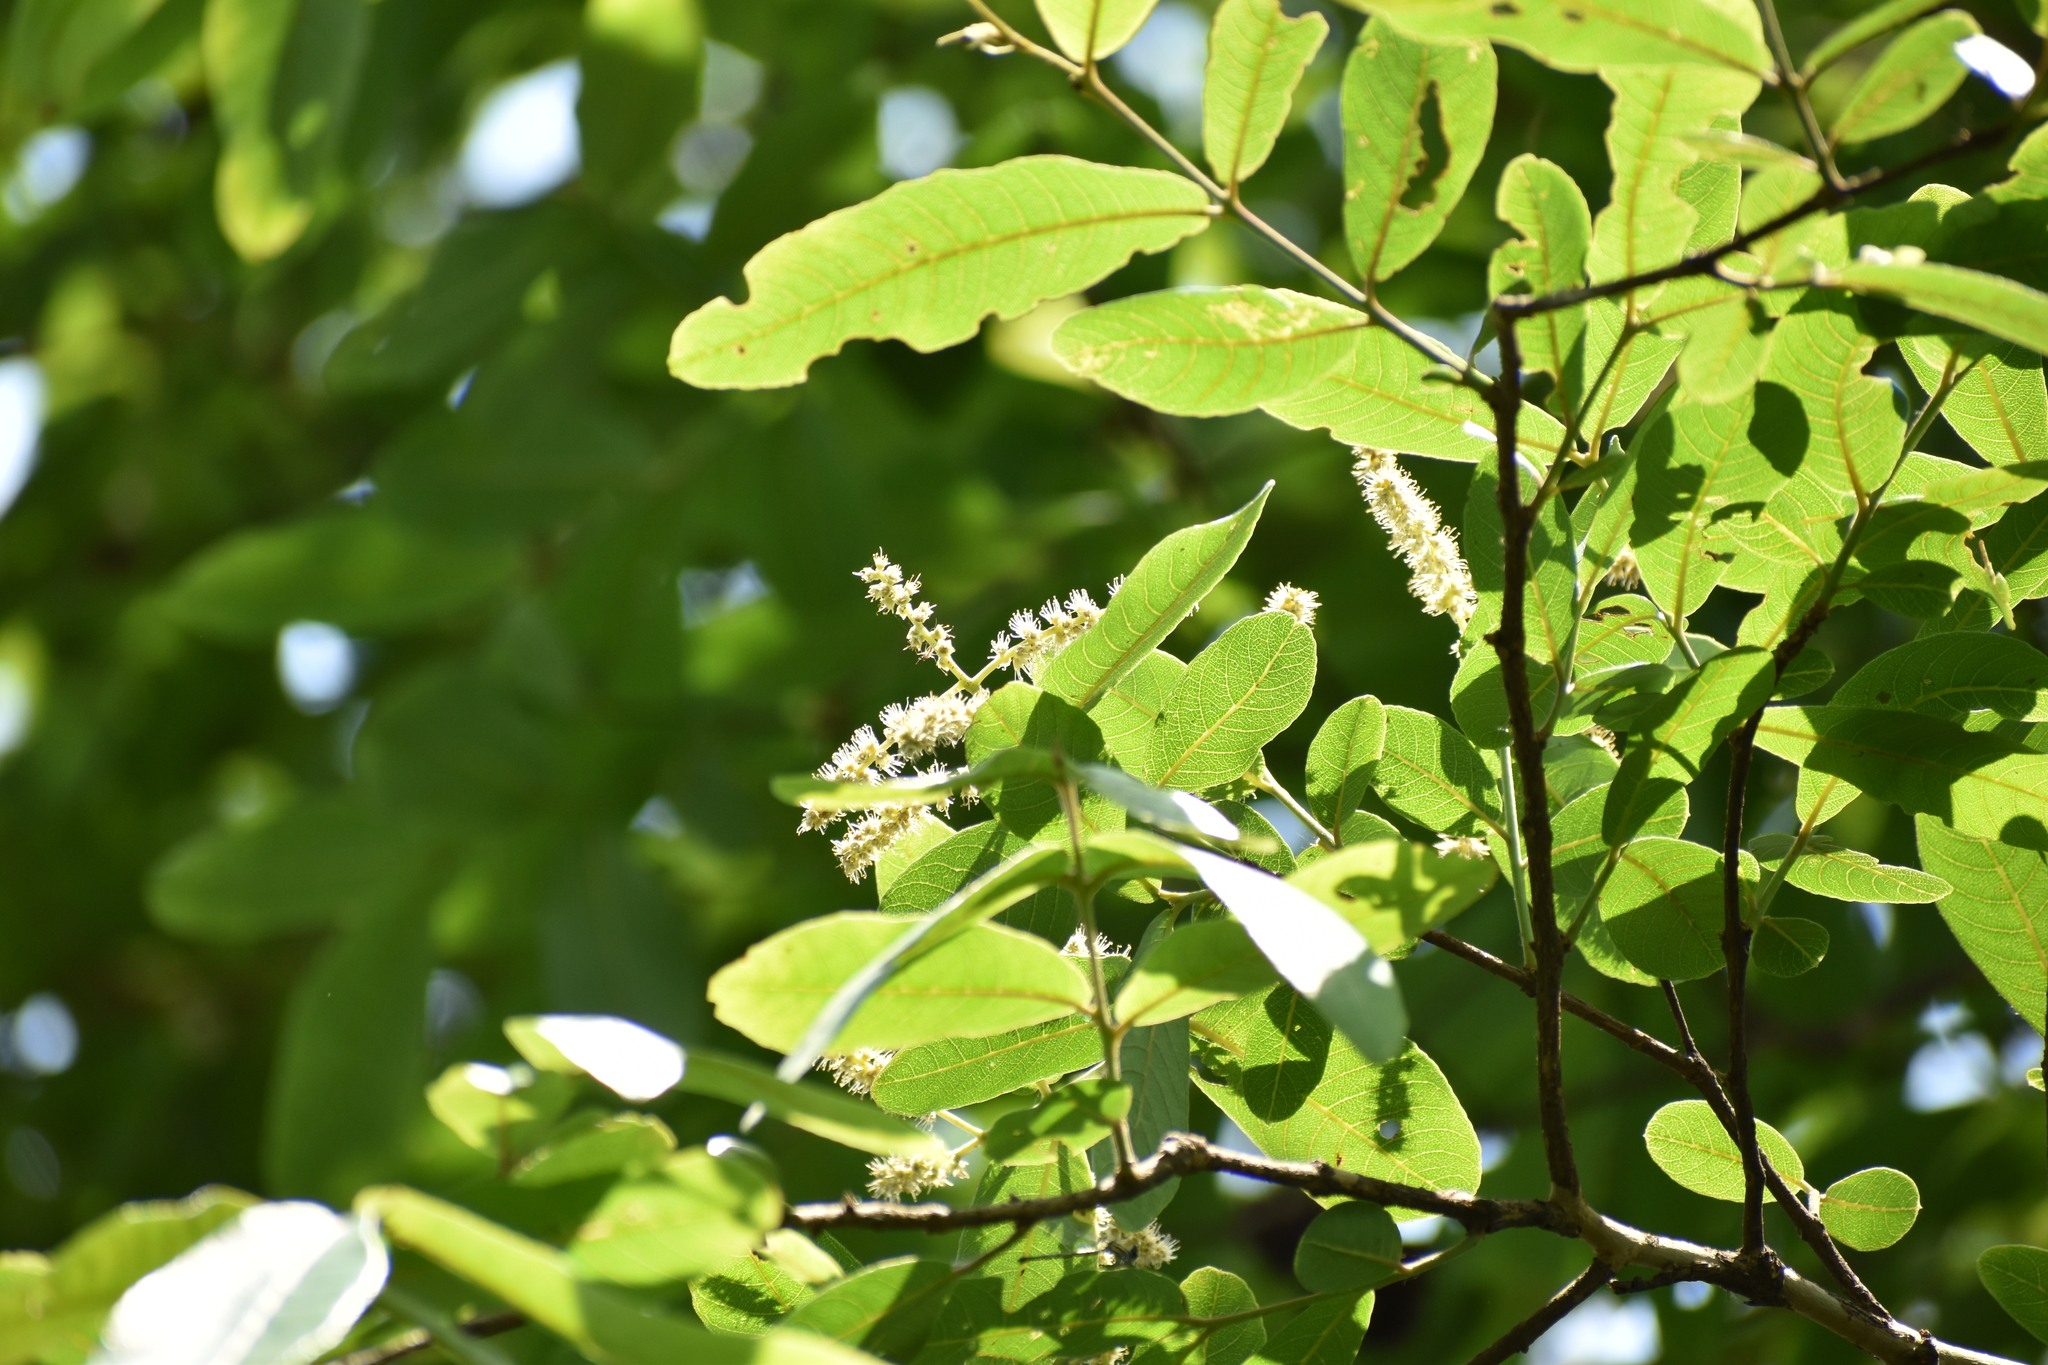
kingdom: Plantae
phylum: Tracheophyta
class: Magnoliopsida
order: Myrtales
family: Combretaceae
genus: Terminalia
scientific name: Terminalia arjuna
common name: Arjun
